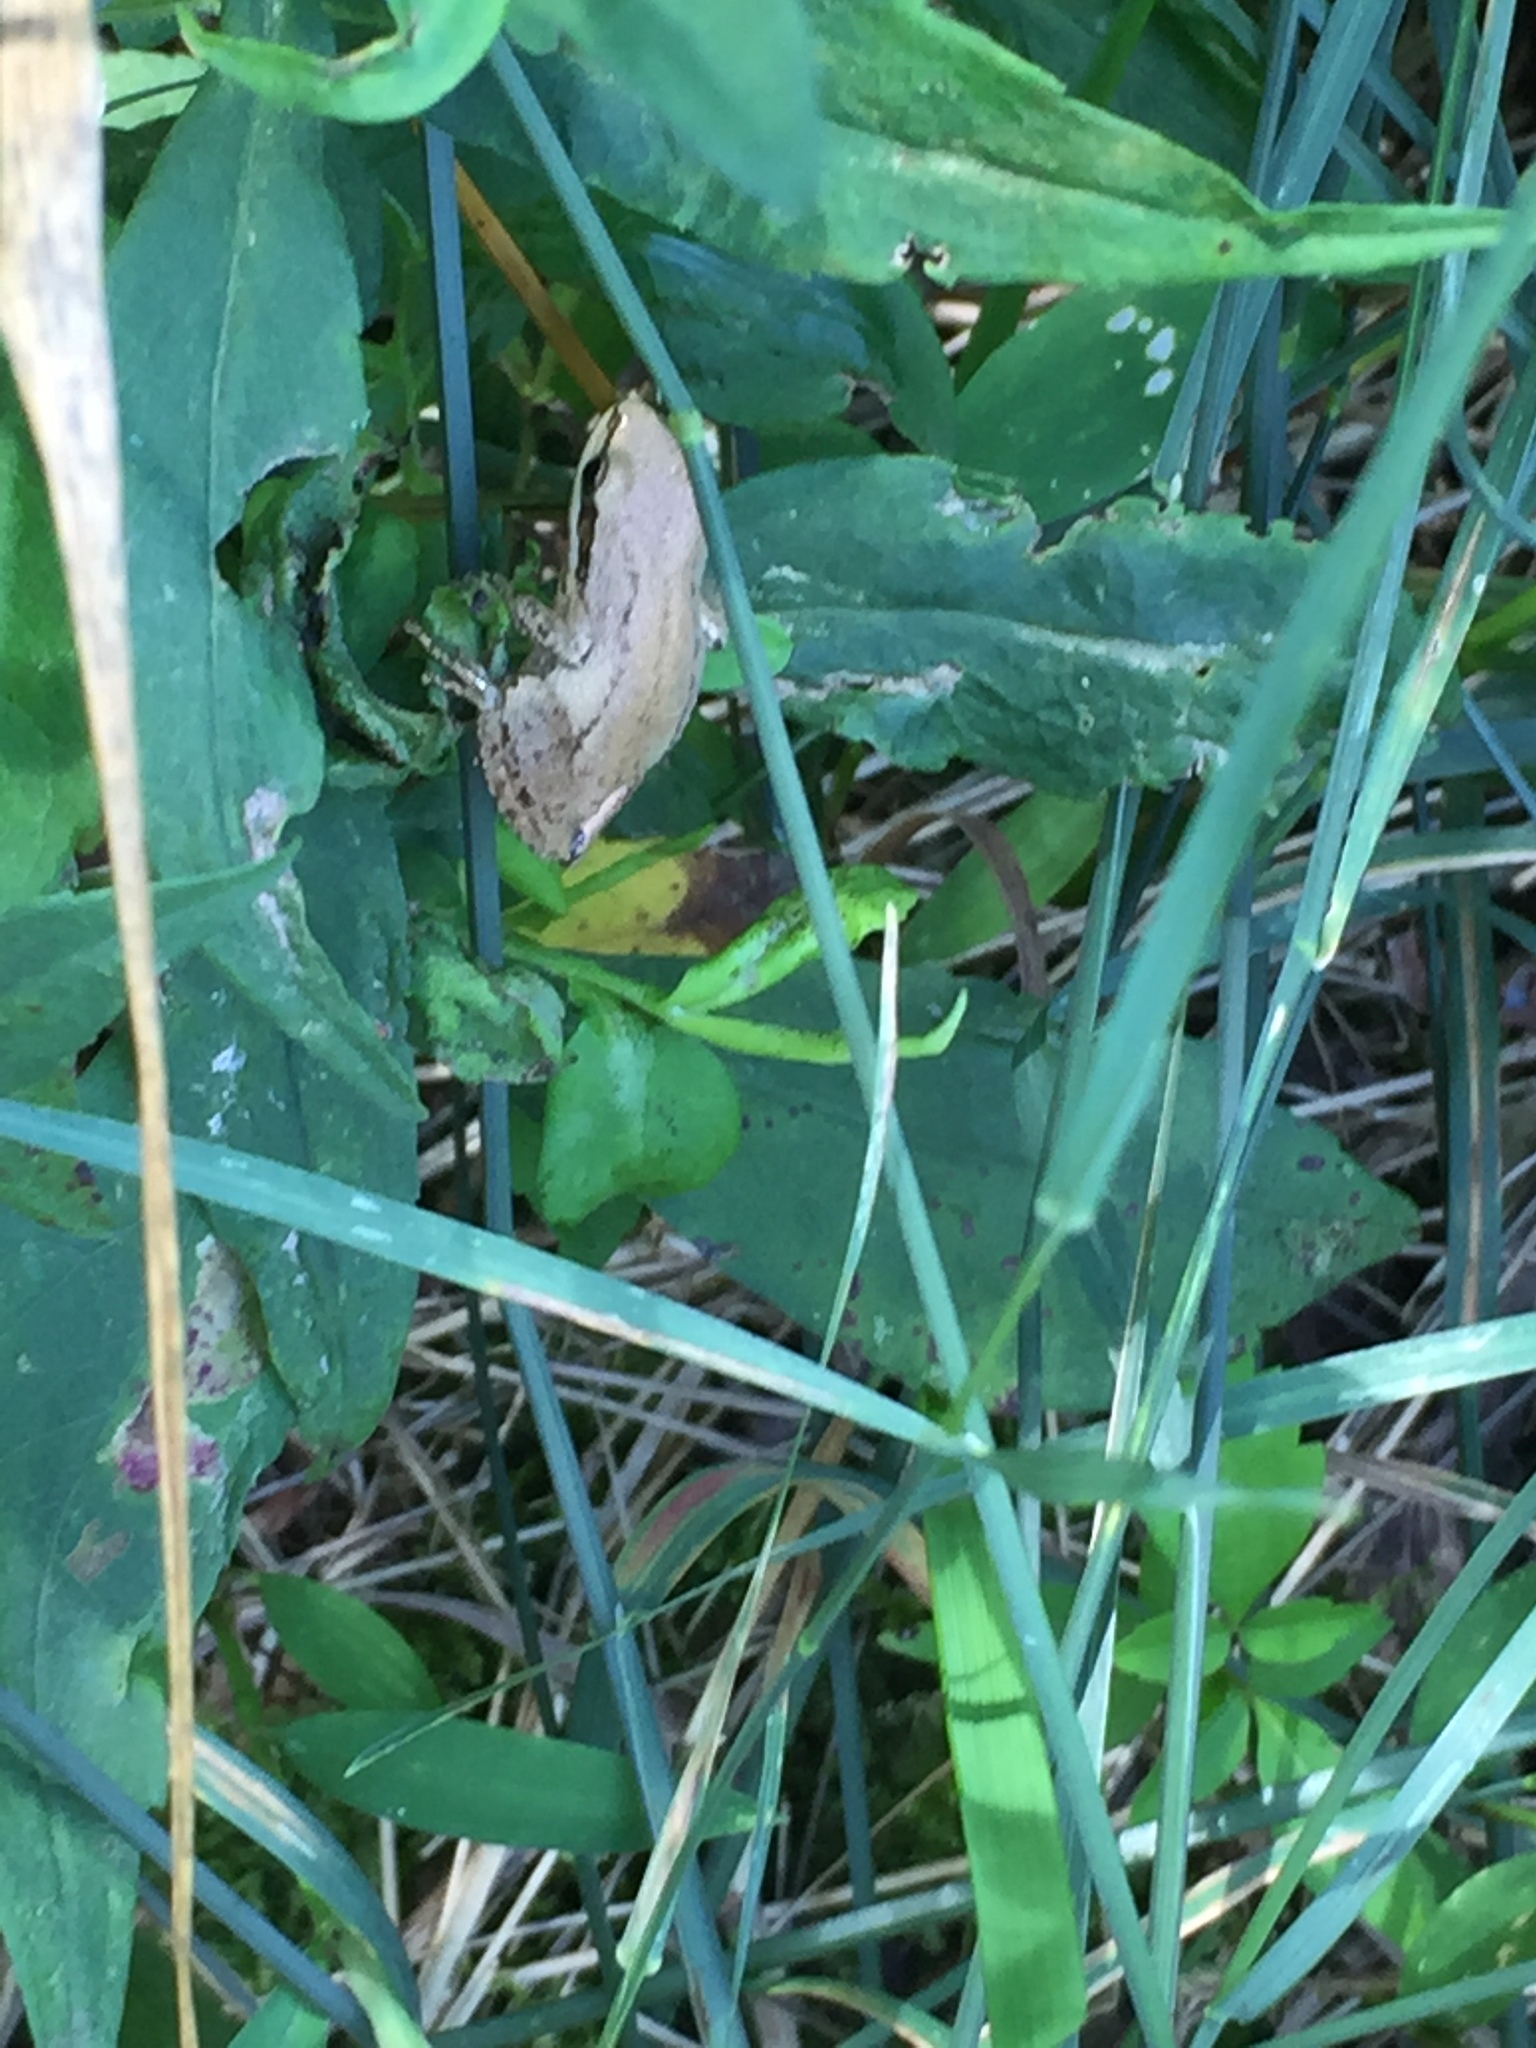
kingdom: Animalia
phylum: Chordata
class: Amphibia
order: Anura
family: Hylidae
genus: Pseudacris
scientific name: Pseudacris triseriata
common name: Western chorus frog
